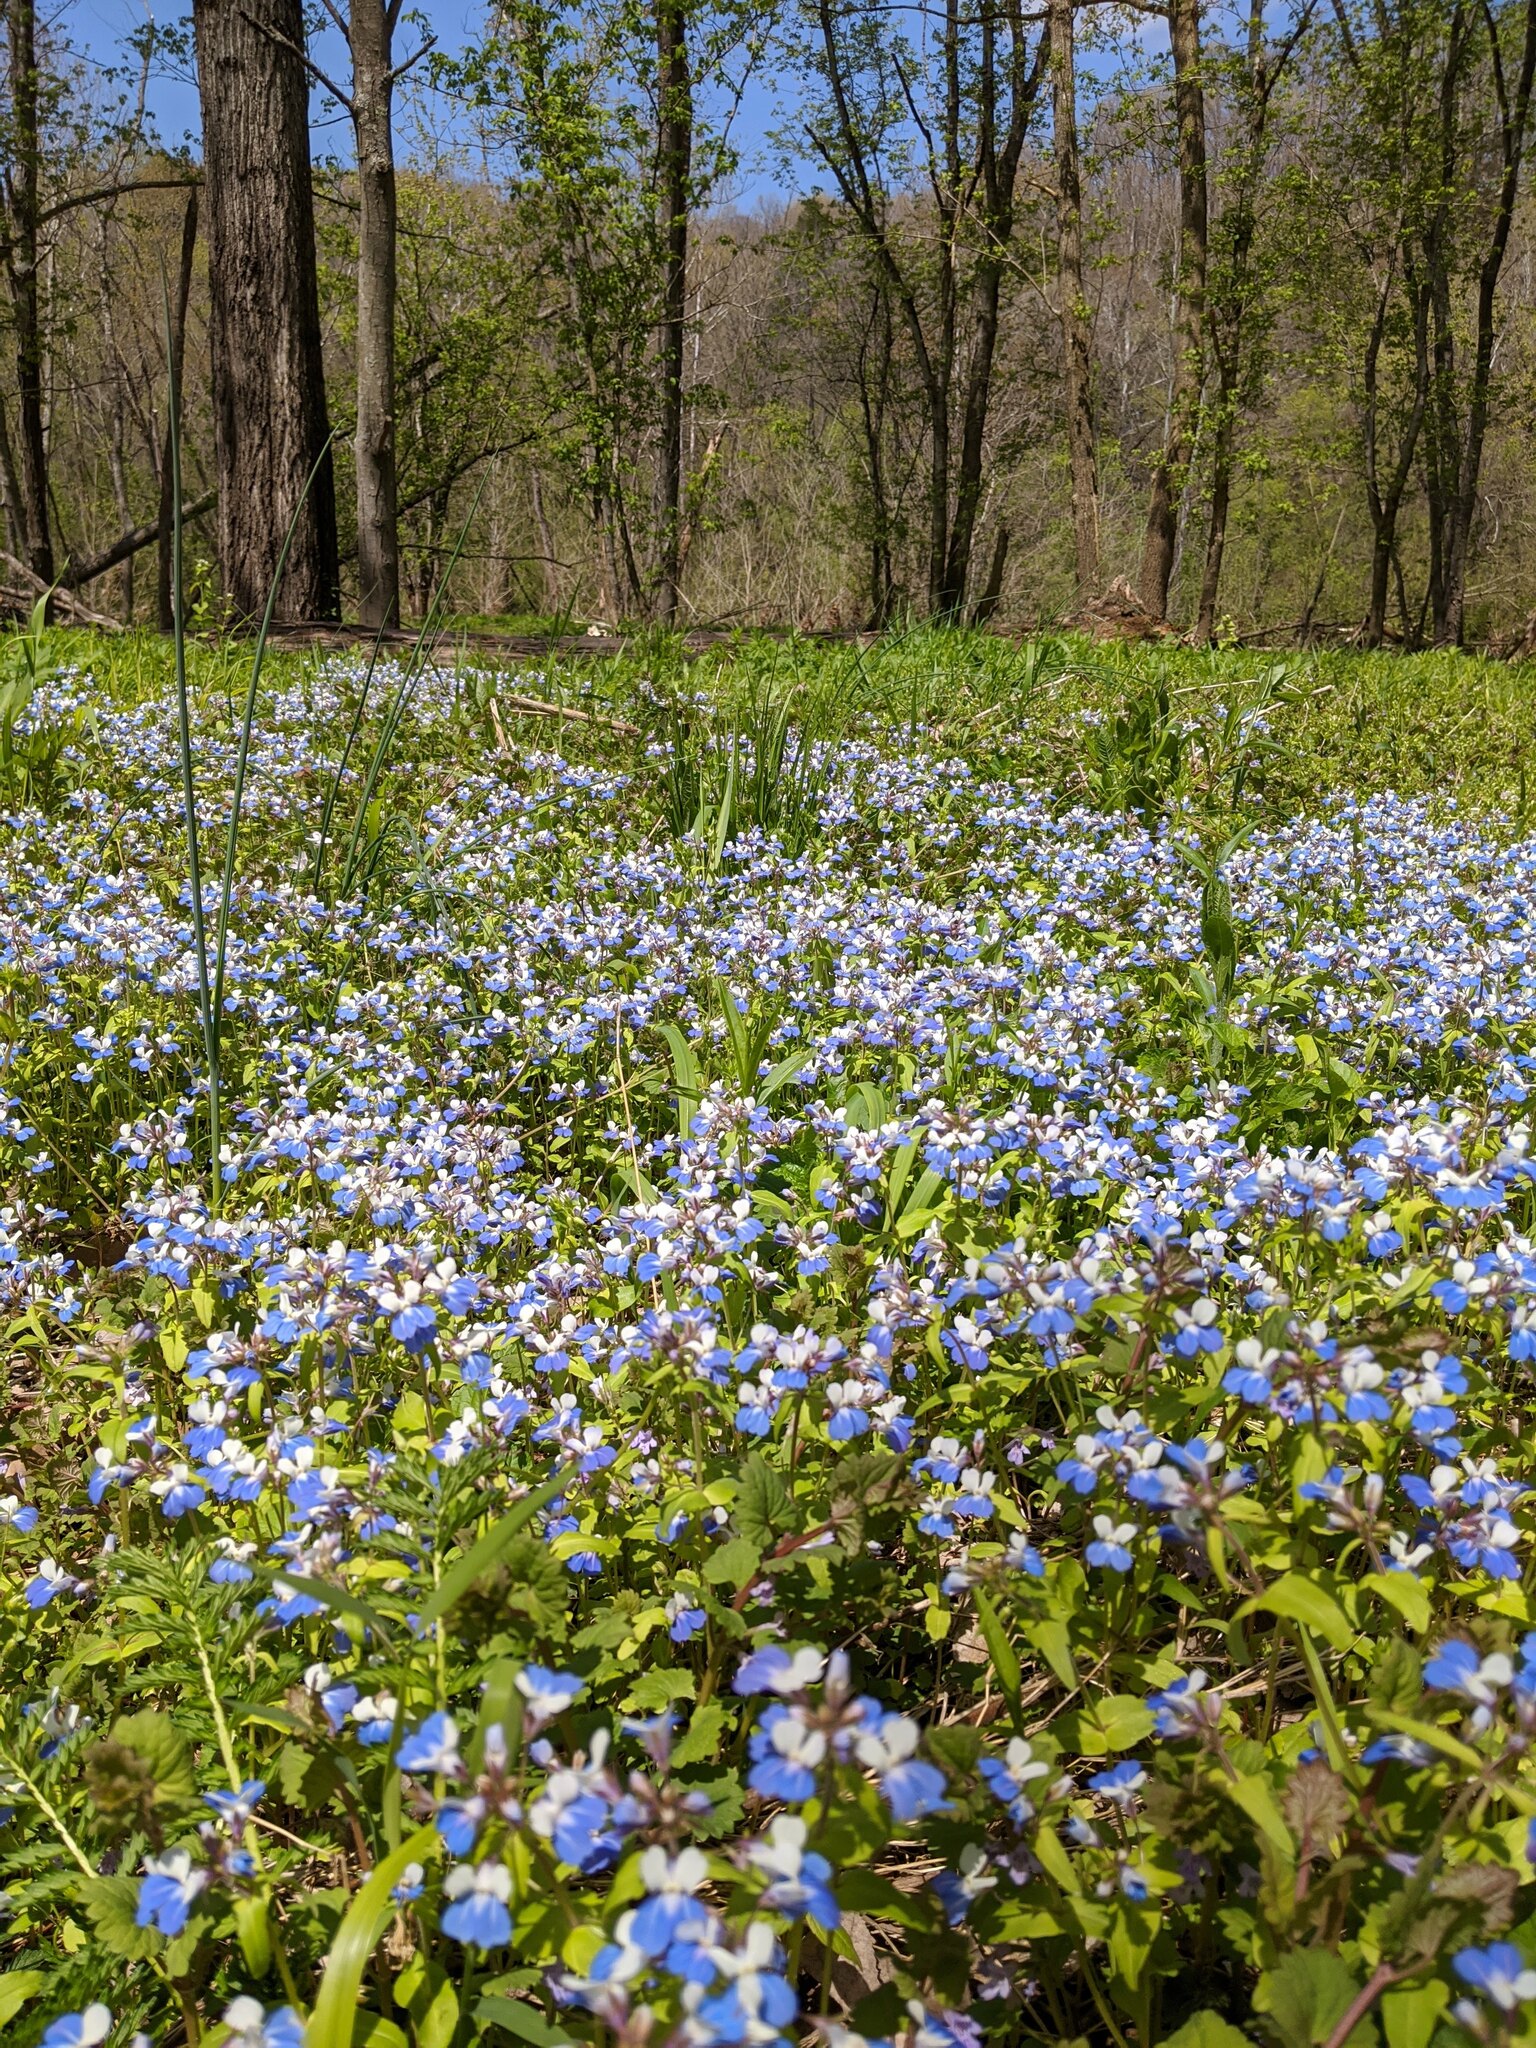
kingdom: Plantae
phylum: Tracheophyta
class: Magnoliopsida
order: Lamiales
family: Plantaginaceae
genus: Collinsia
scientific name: Collinsia verna
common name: Broad-leaved collinsia
